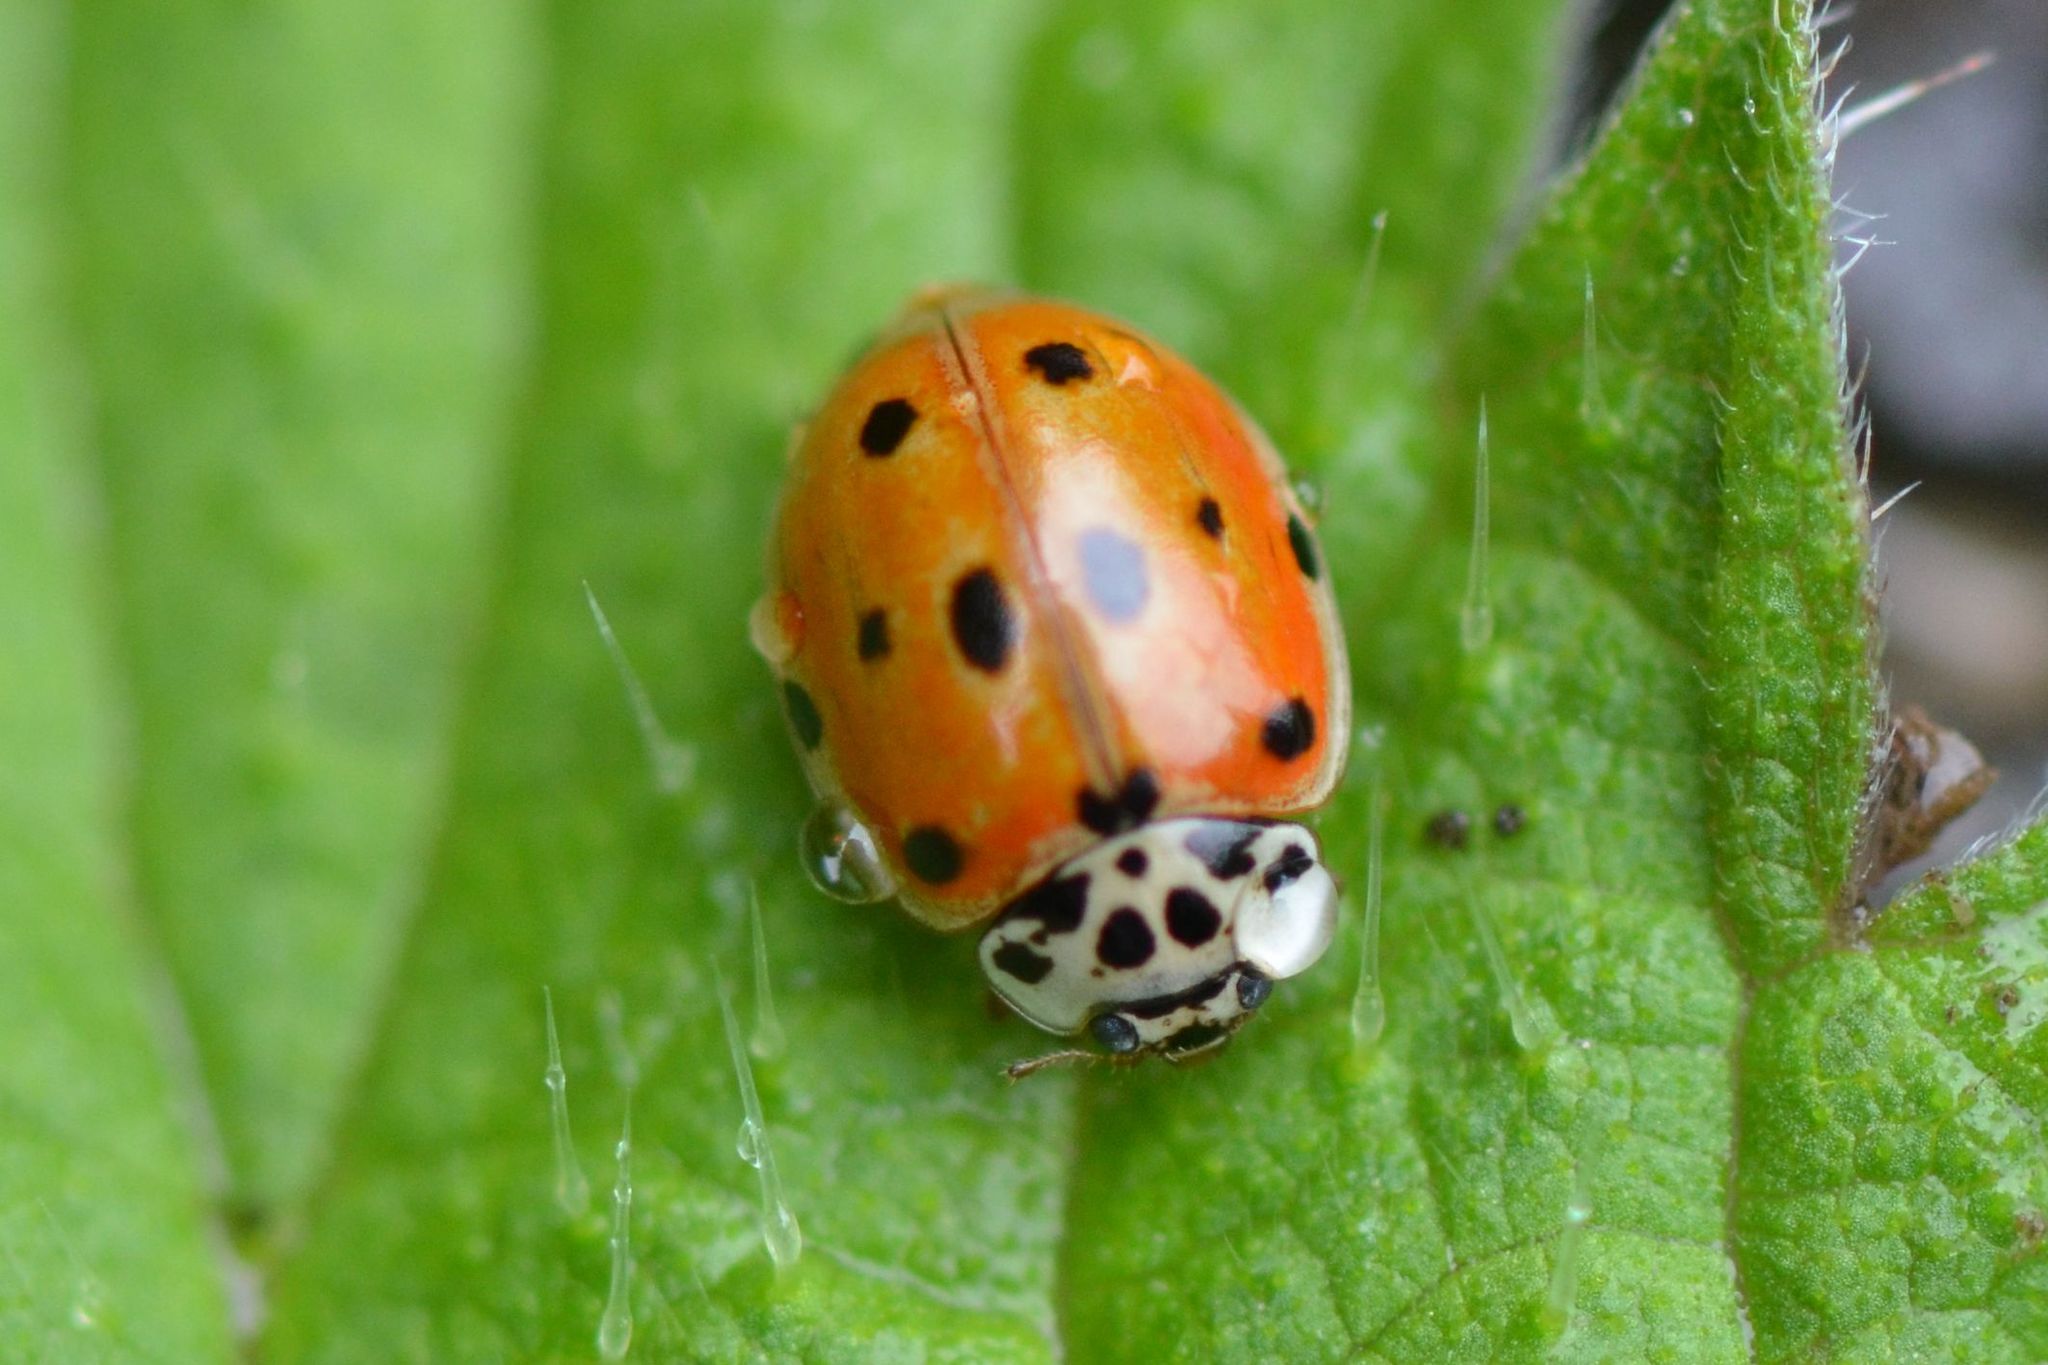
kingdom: Animalia
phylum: Arthropoda
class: Insecta
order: Coleoptera
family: Coccinellidae
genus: Adalia
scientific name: Adalia decempunctata
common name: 10-spot ladybird
